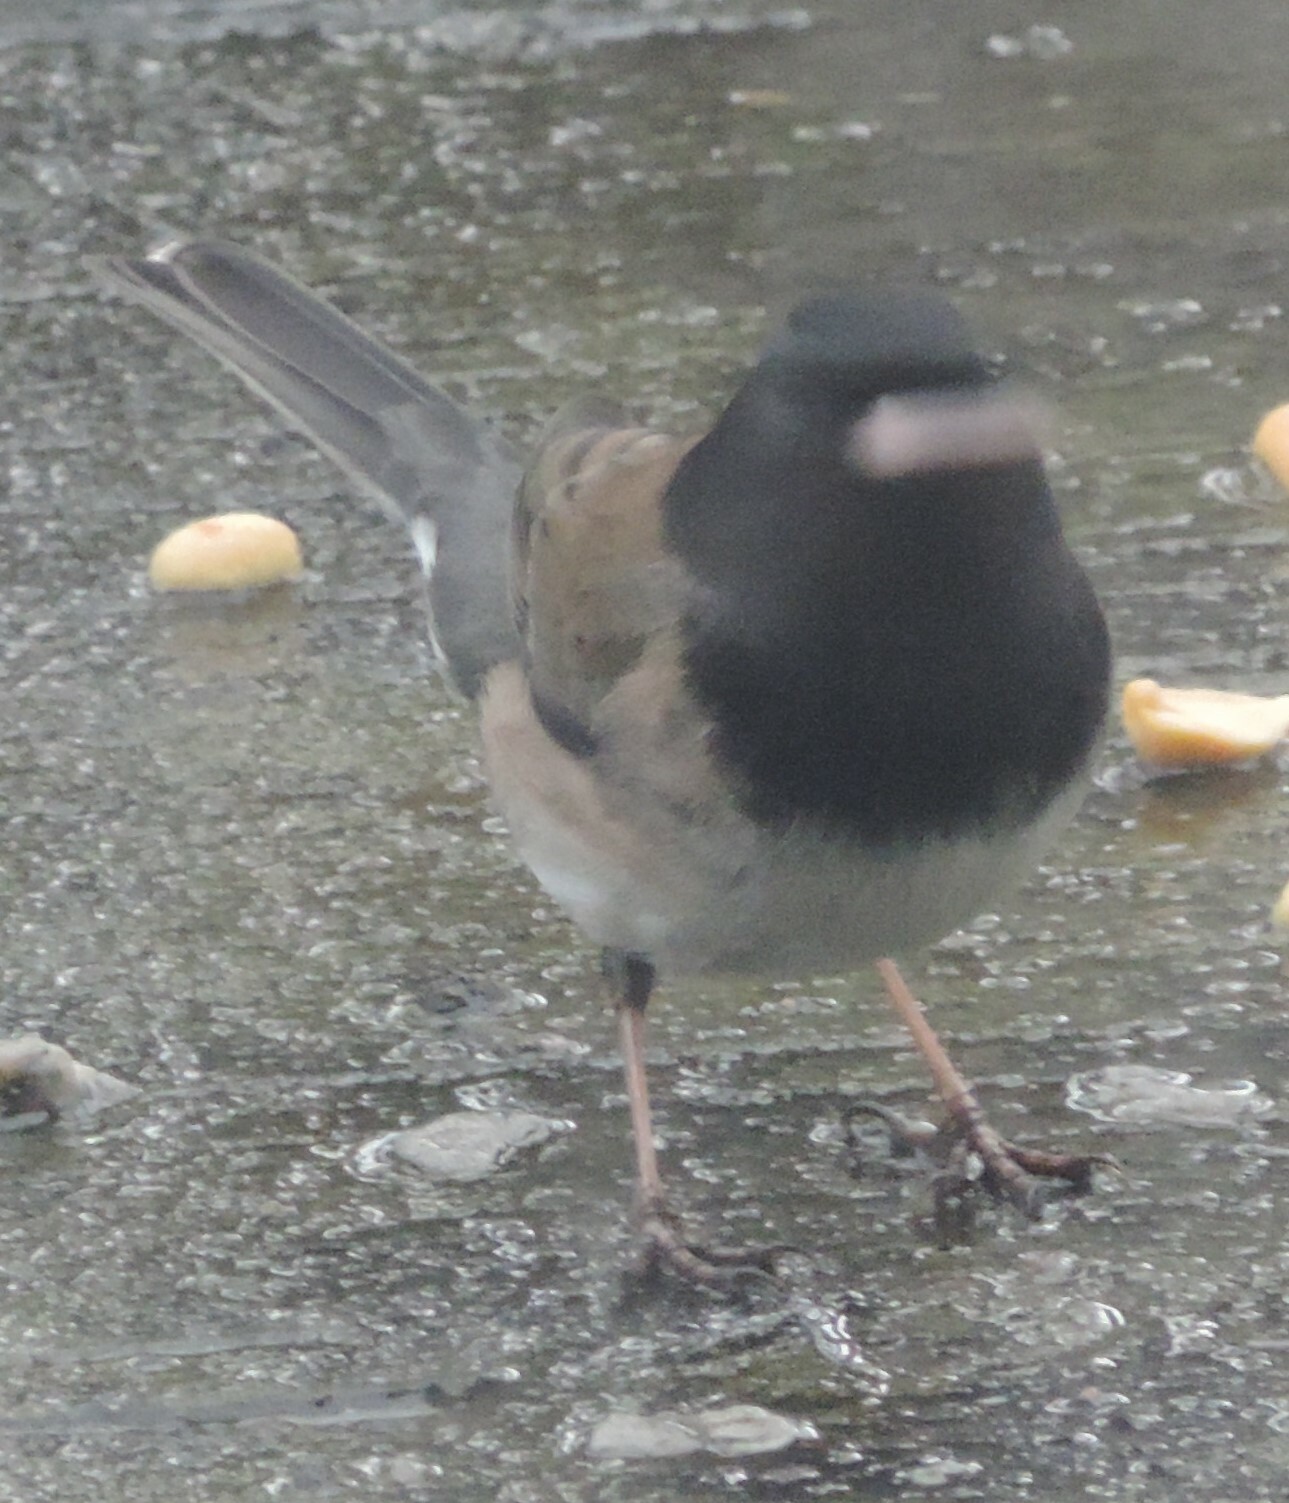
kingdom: Animalia
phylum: Chordata
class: Aves
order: Passeriformes
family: Passerellidae
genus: Junco
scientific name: Junco hyemalis
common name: Dark-eyed junco
